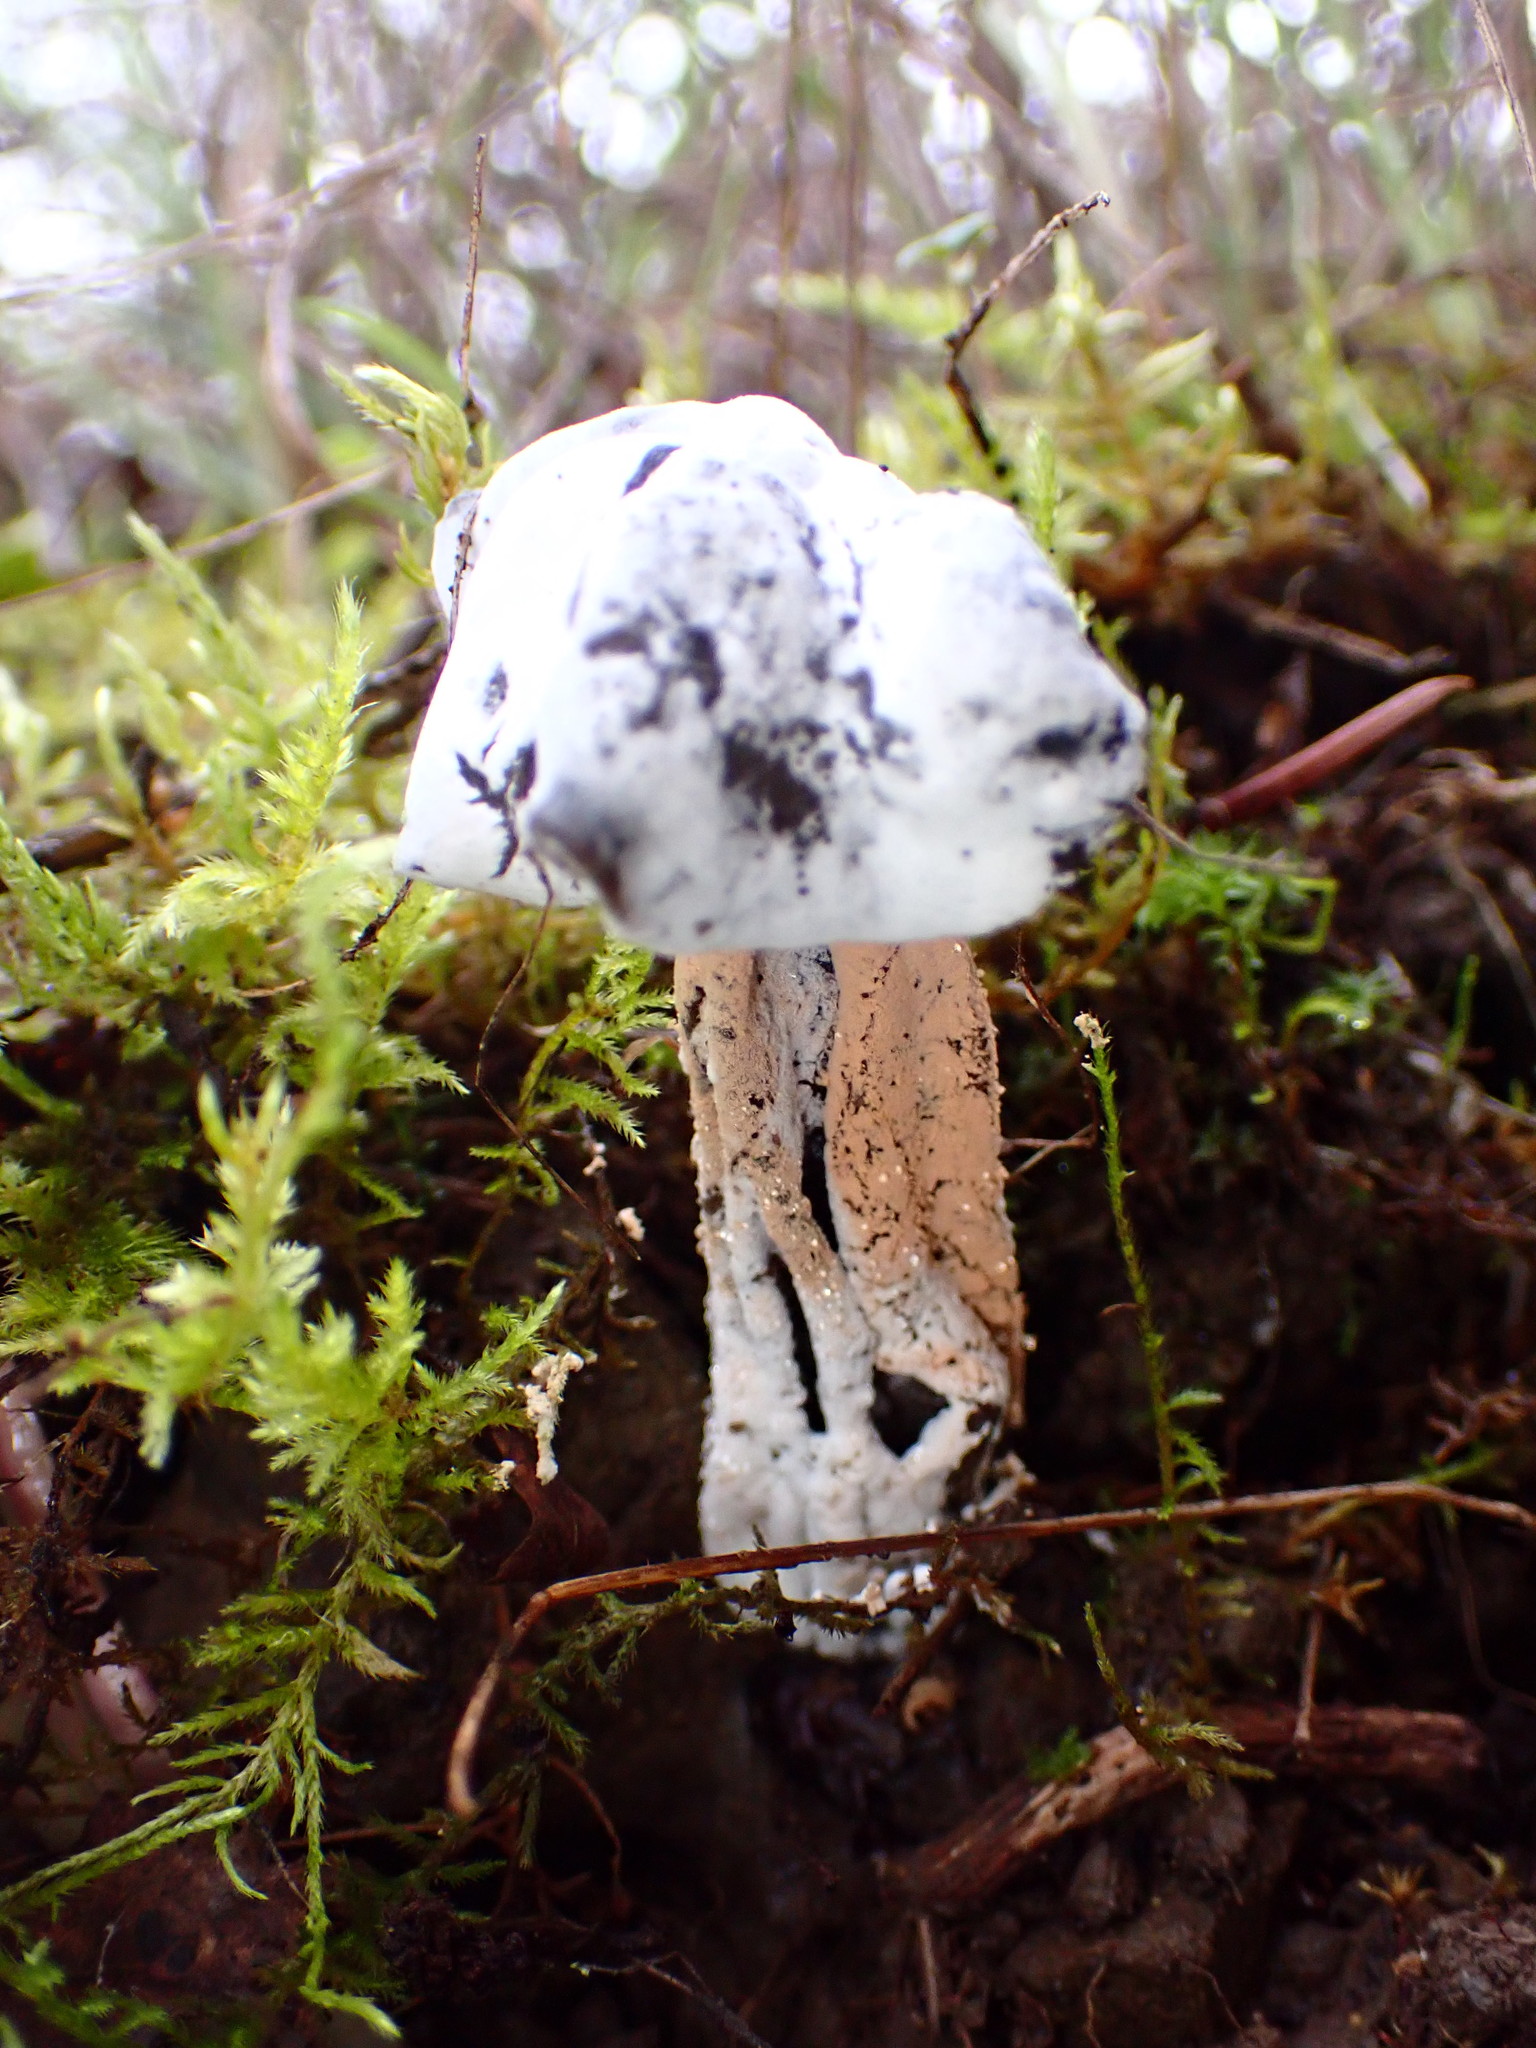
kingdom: Fungi
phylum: Ascomycota
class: Pezizomycetes
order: Pezizales
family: Helvellaceae
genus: Helvella
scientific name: Helvella vespertina
